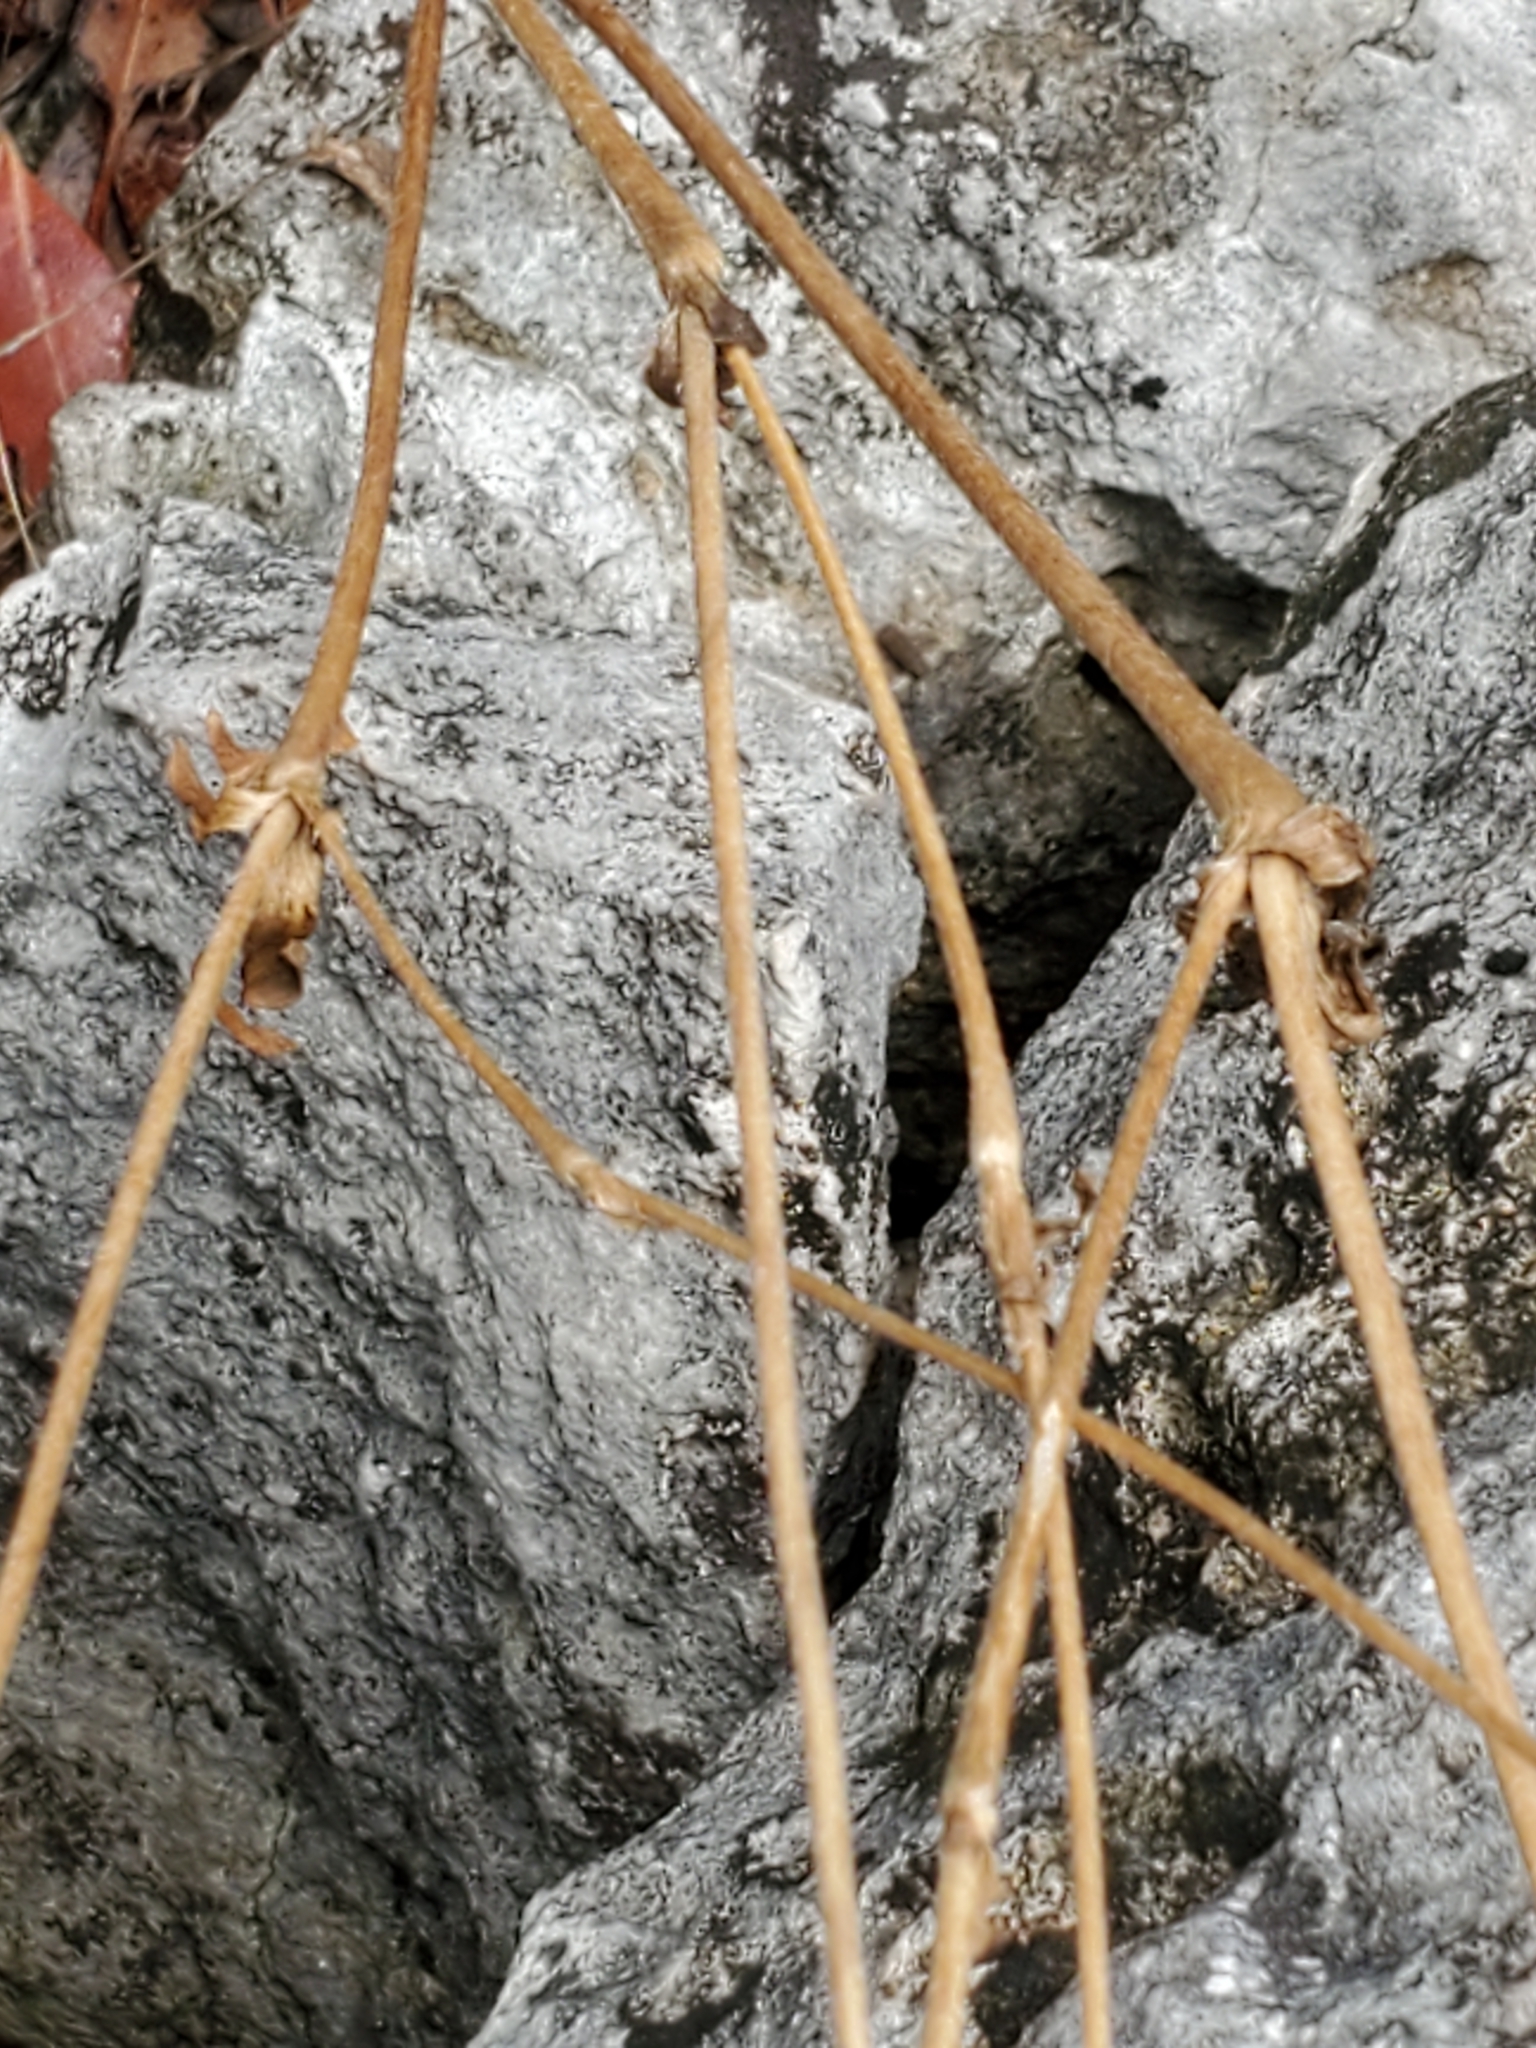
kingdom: Plantae
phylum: Tracheophyta
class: Magnoliopsida
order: Ranunculales
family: Ranunculaceae
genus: Anemone
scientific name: Anemone edwardsiana
